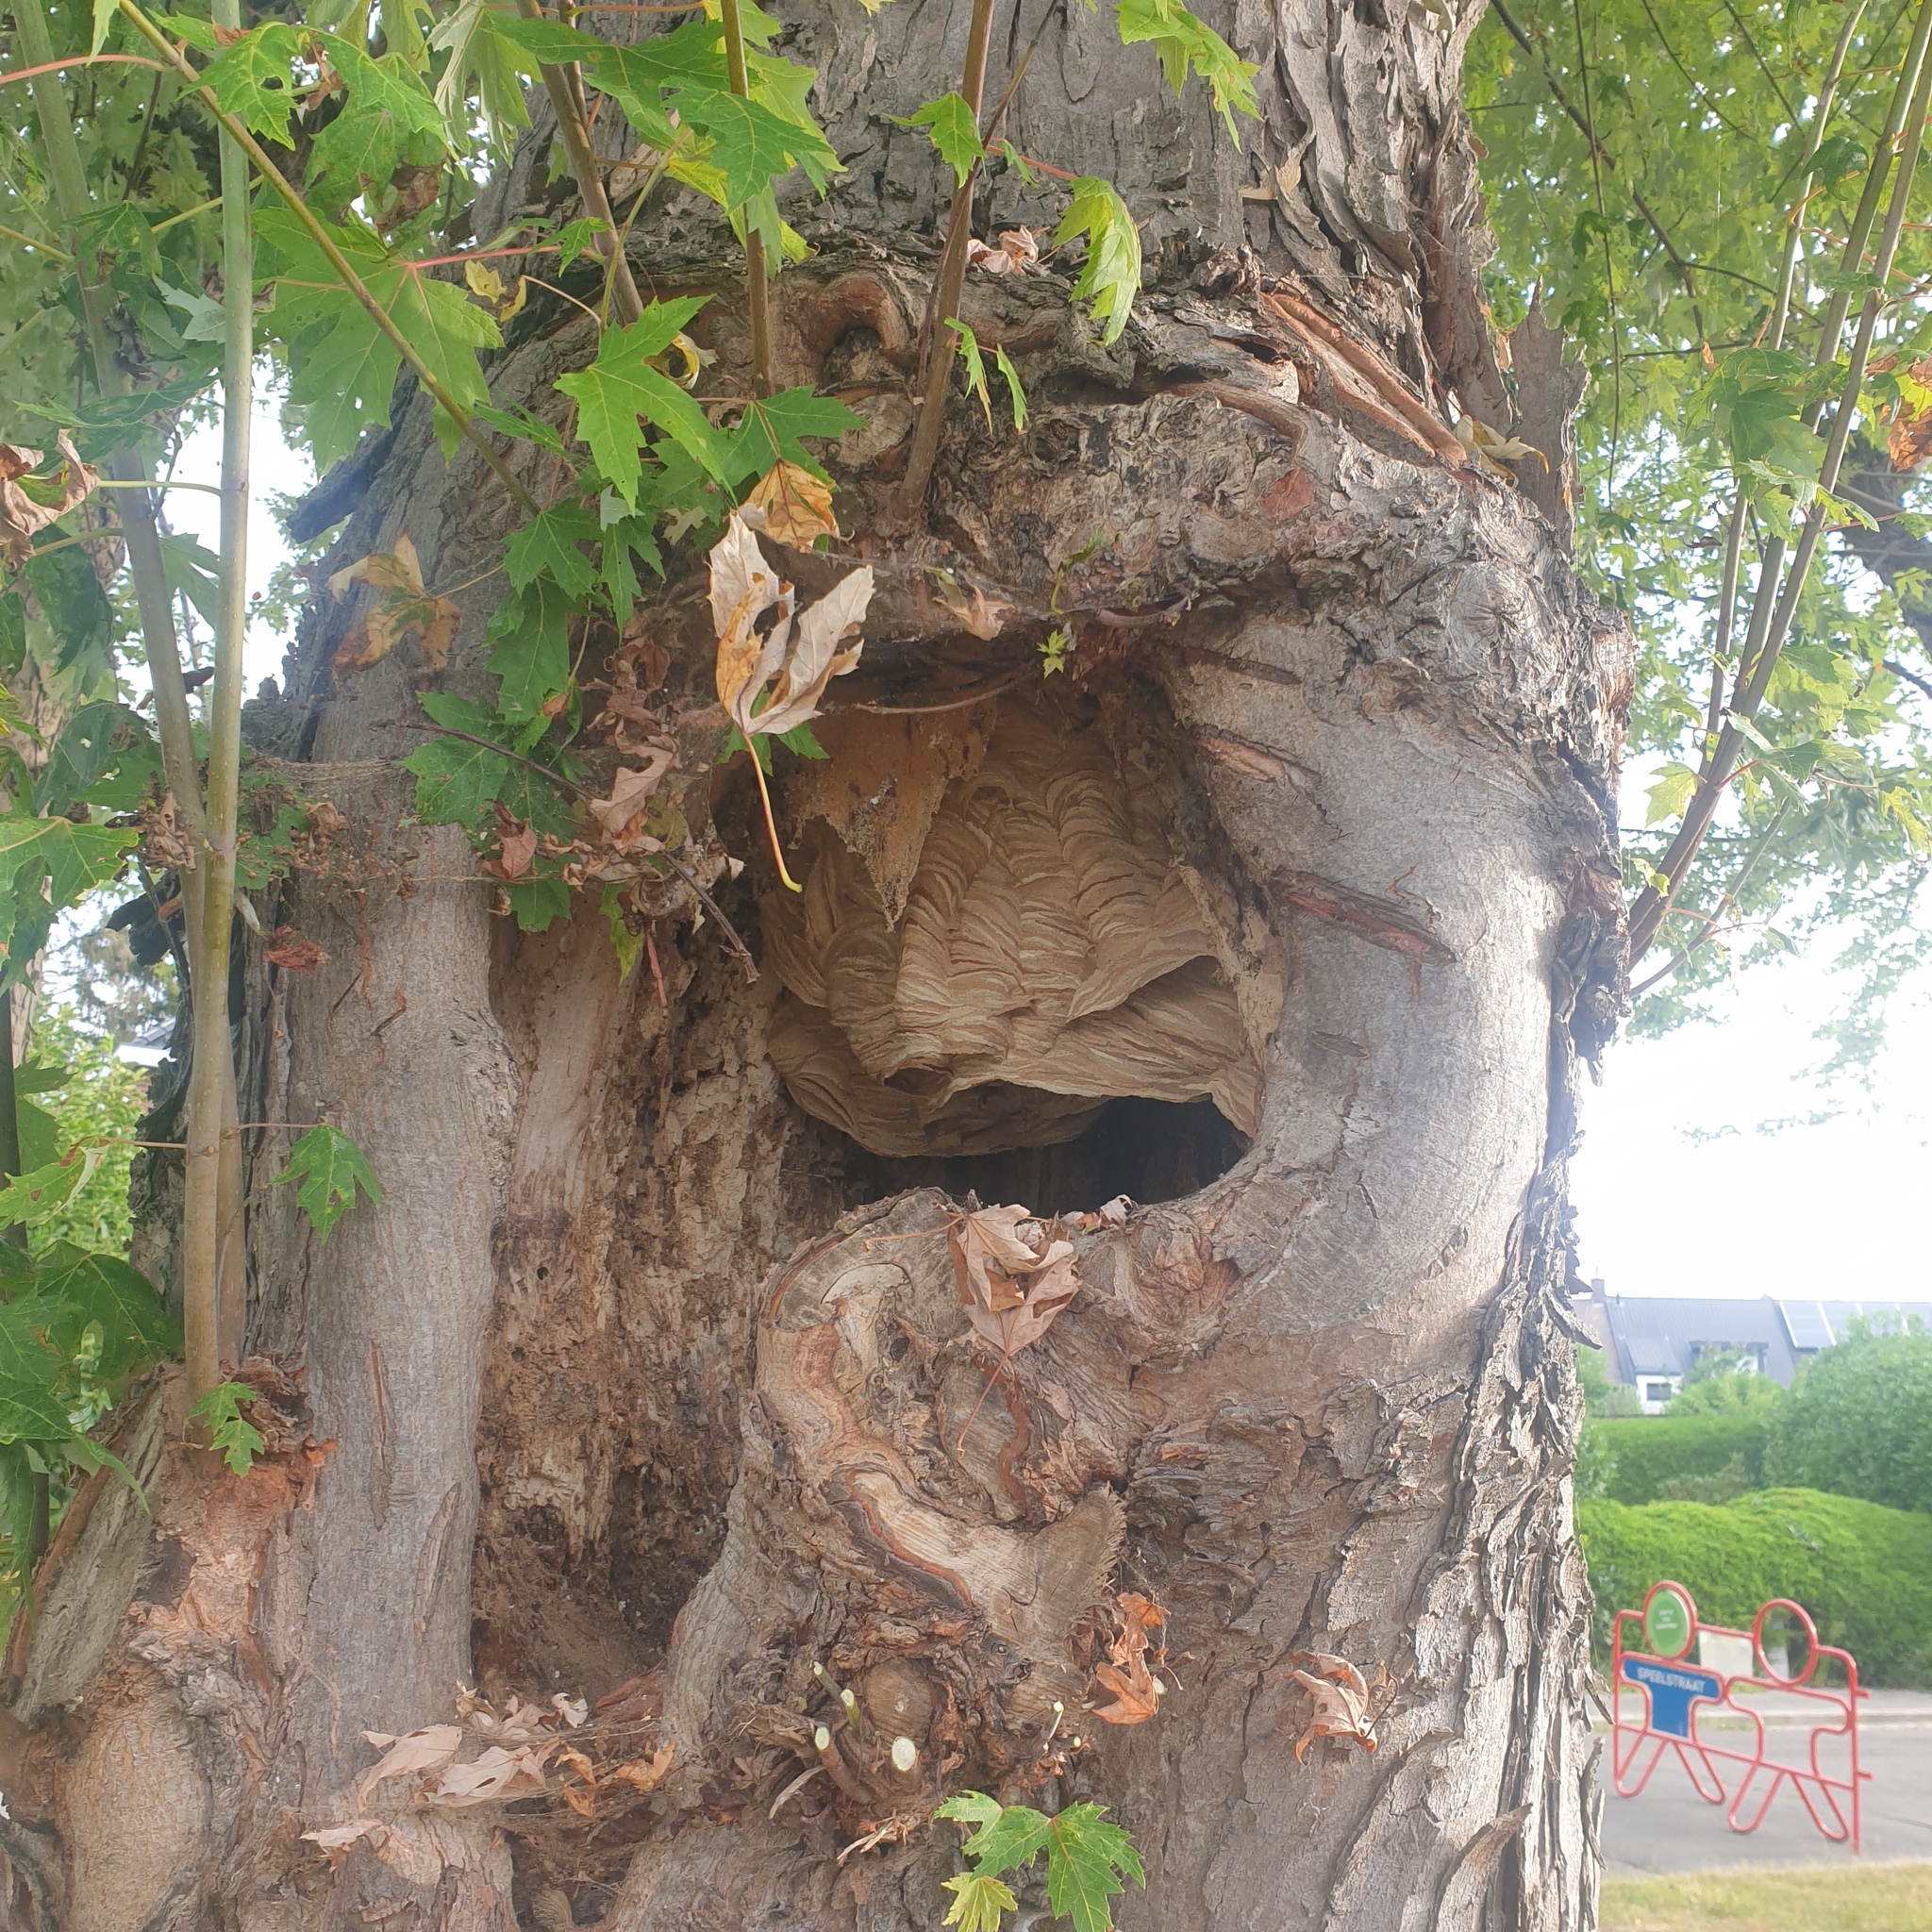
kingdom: Animalia
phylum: Arthropoda
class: Insecta
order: Hymenoptera
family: Vespidae
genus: Vespa
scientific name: Vespa crabro
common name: Hornet
